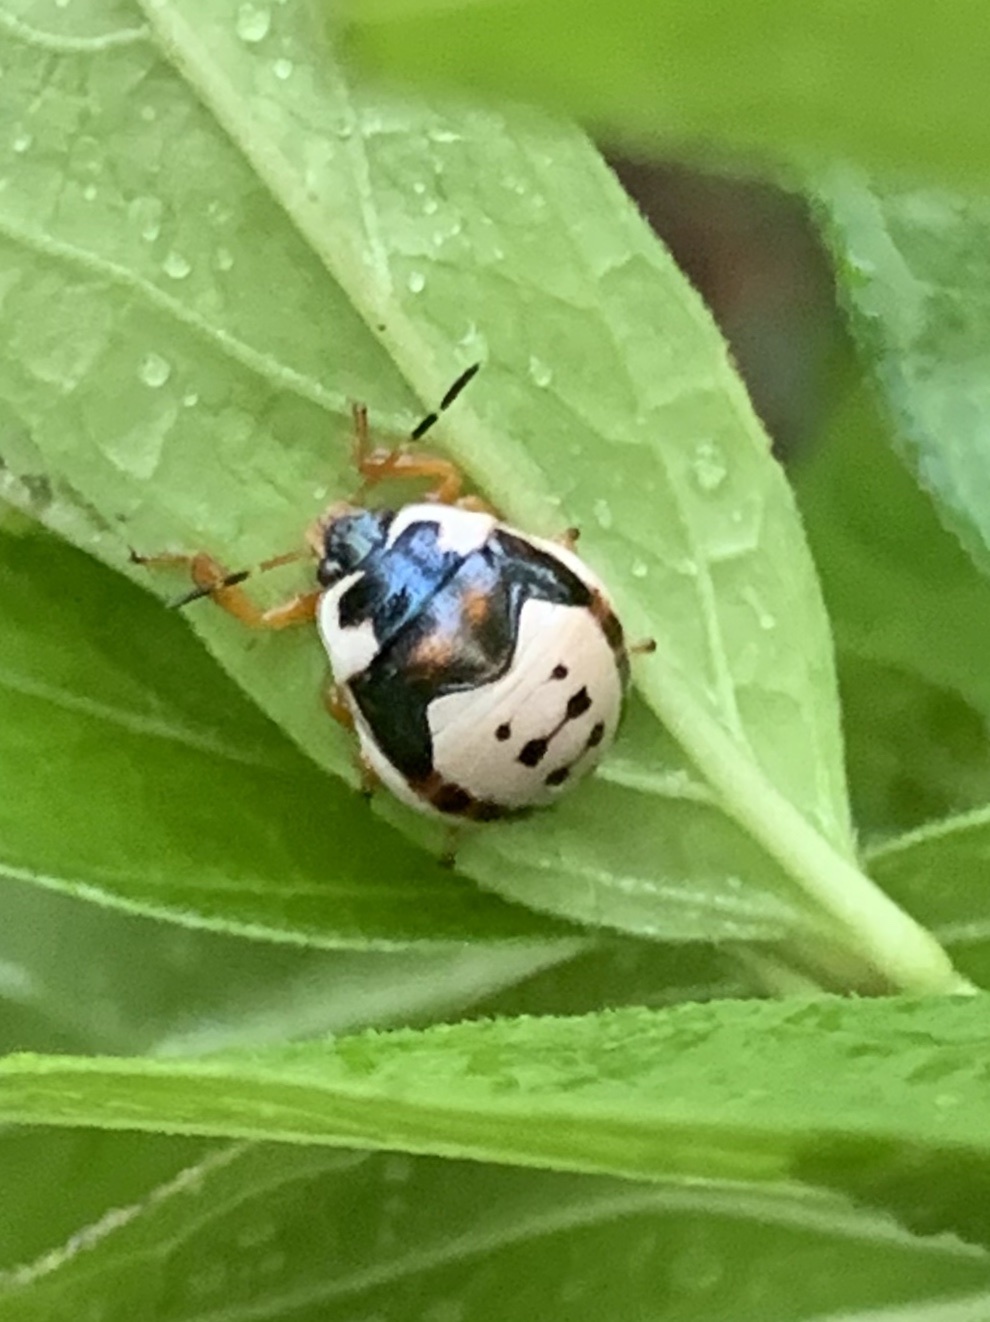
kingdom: Animalia
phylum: Arthropoda
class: Insecta
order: Hemiptera
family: Pentatomidae
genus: Stiretrus
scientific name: Stiretrus anchorago
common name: Anchor stink bug
